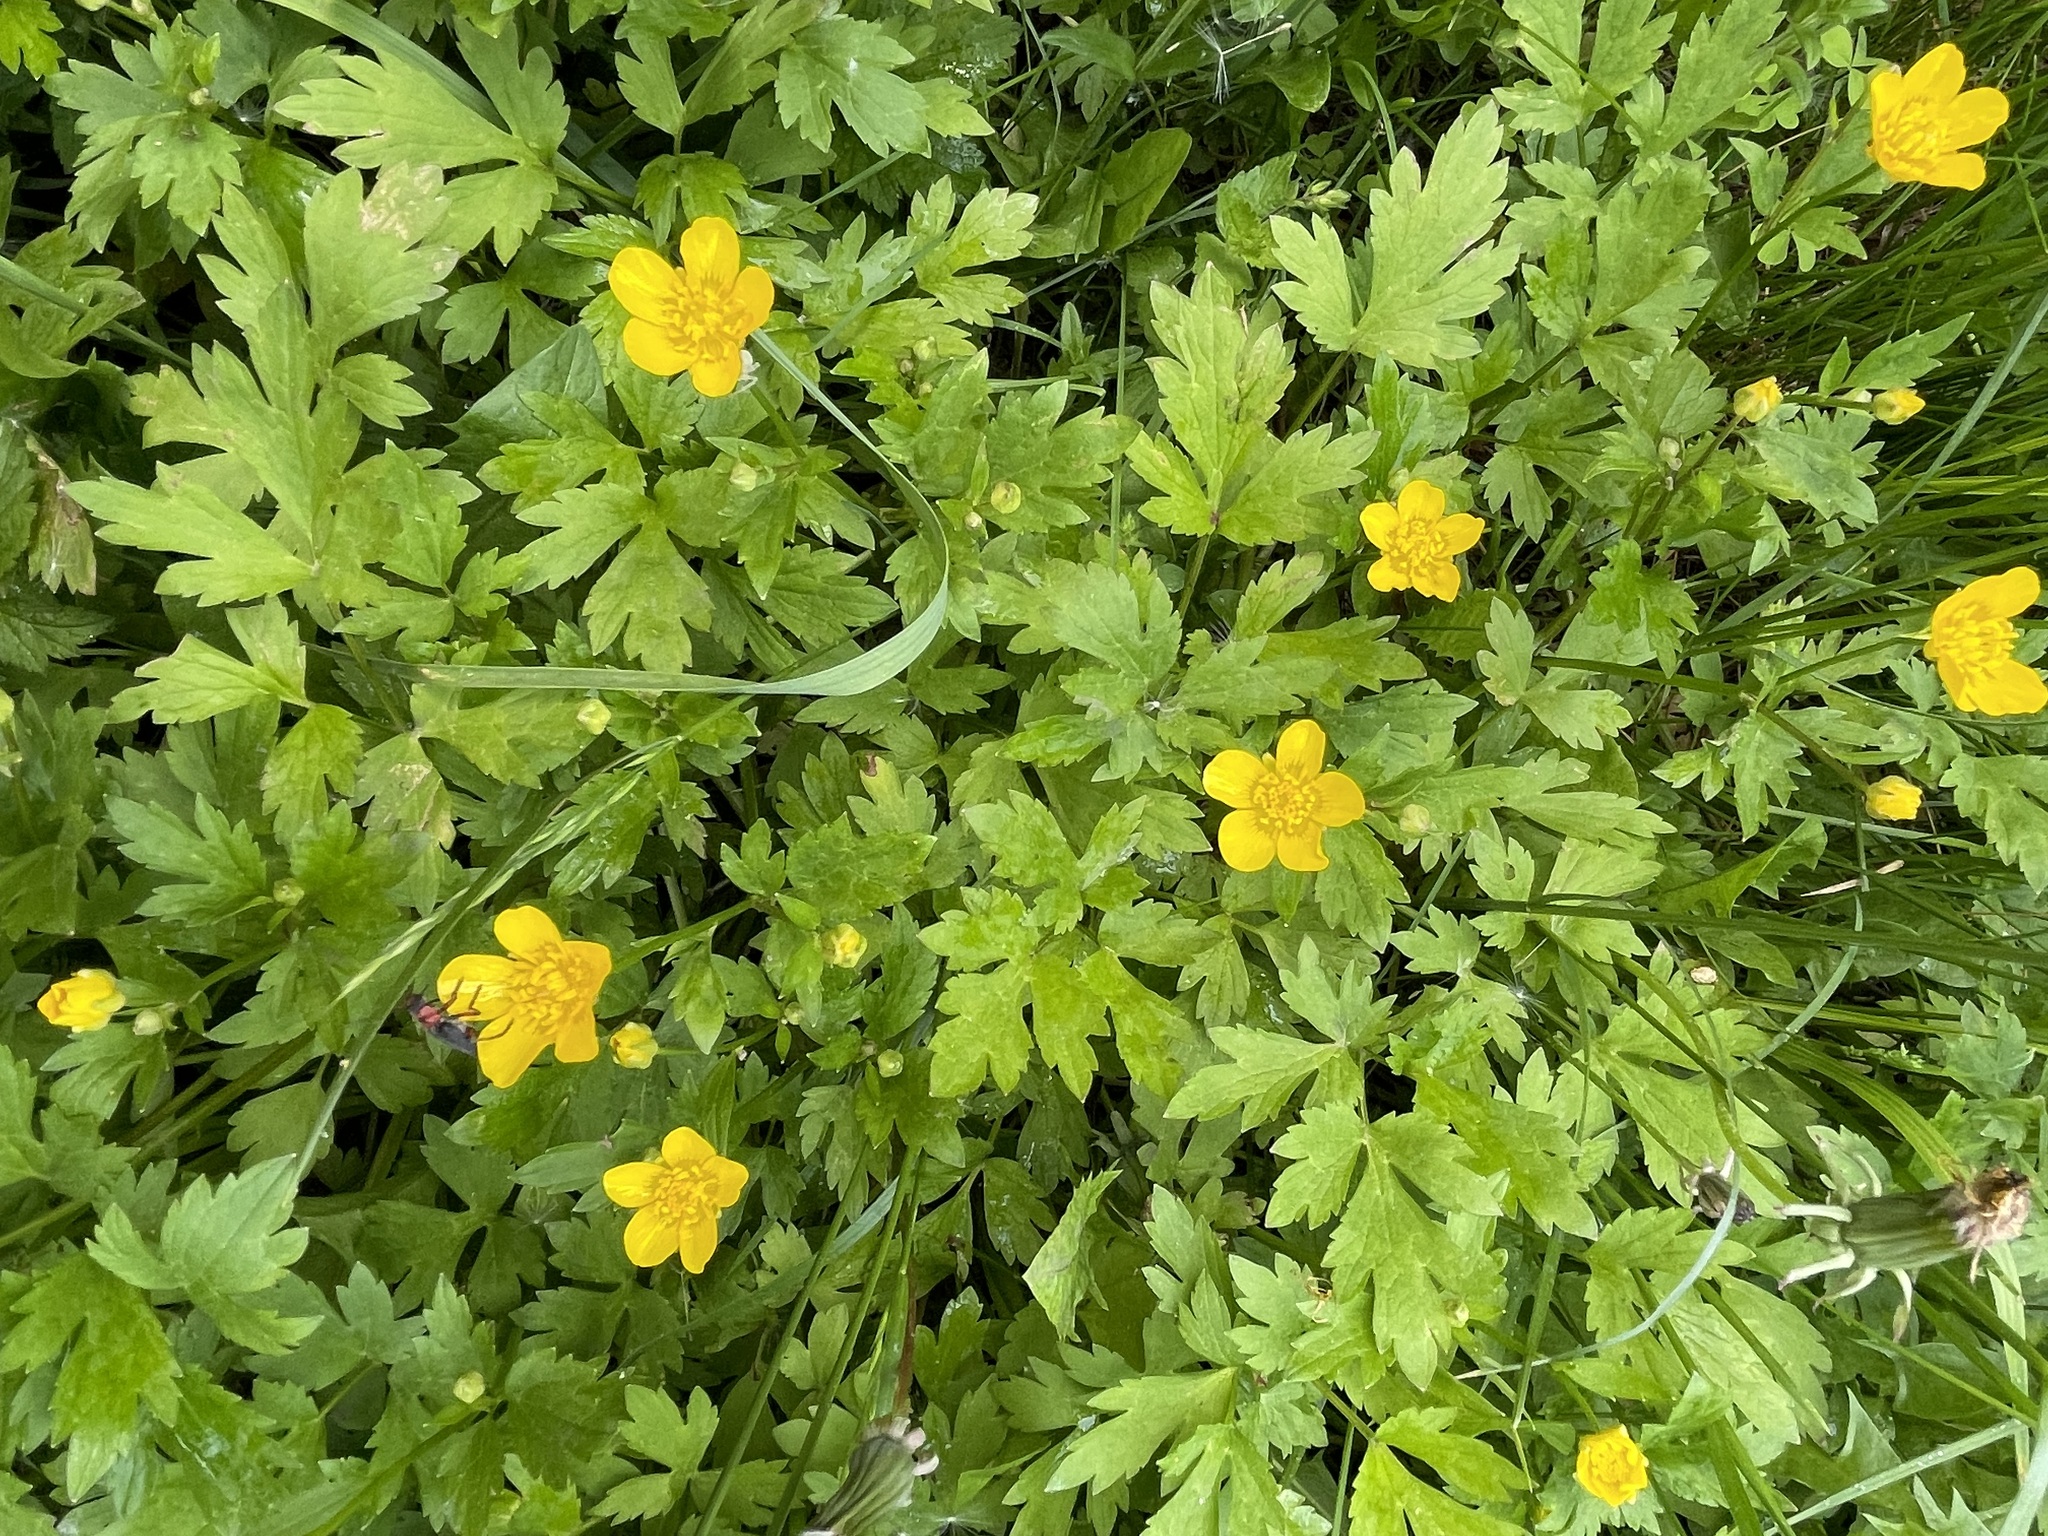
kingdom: Plantae
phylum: Tracheophyta
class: Magnoliopsida
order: Ranunculales
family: Ranunculaceae
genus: Ranunculus
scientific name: Ranunculus repens
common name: Creeping buttercup
